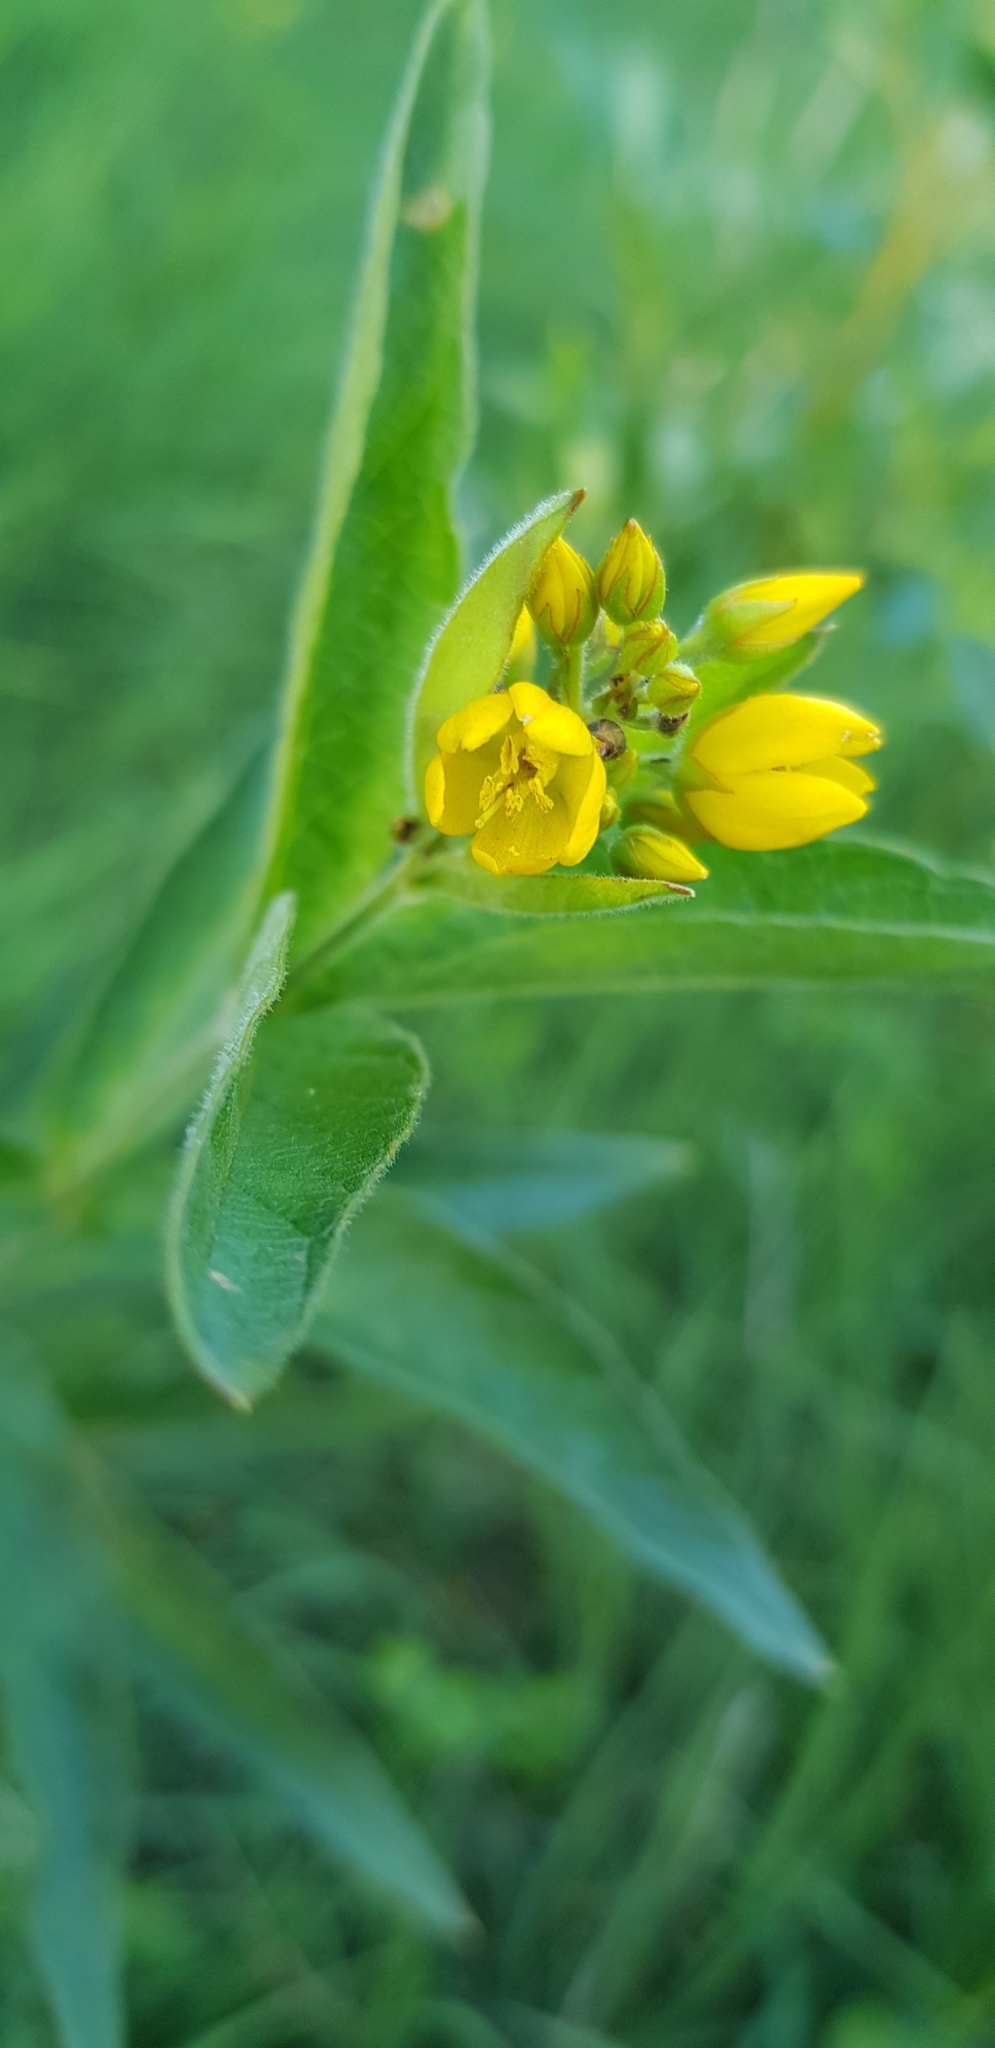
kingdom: Plantae
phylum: Tracheophyta
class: Magnoliopsida
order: Ericales
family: Primulaceae
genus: Lysimachia
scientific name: Lysimachia vulgaris
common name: Yellow loosestrife
